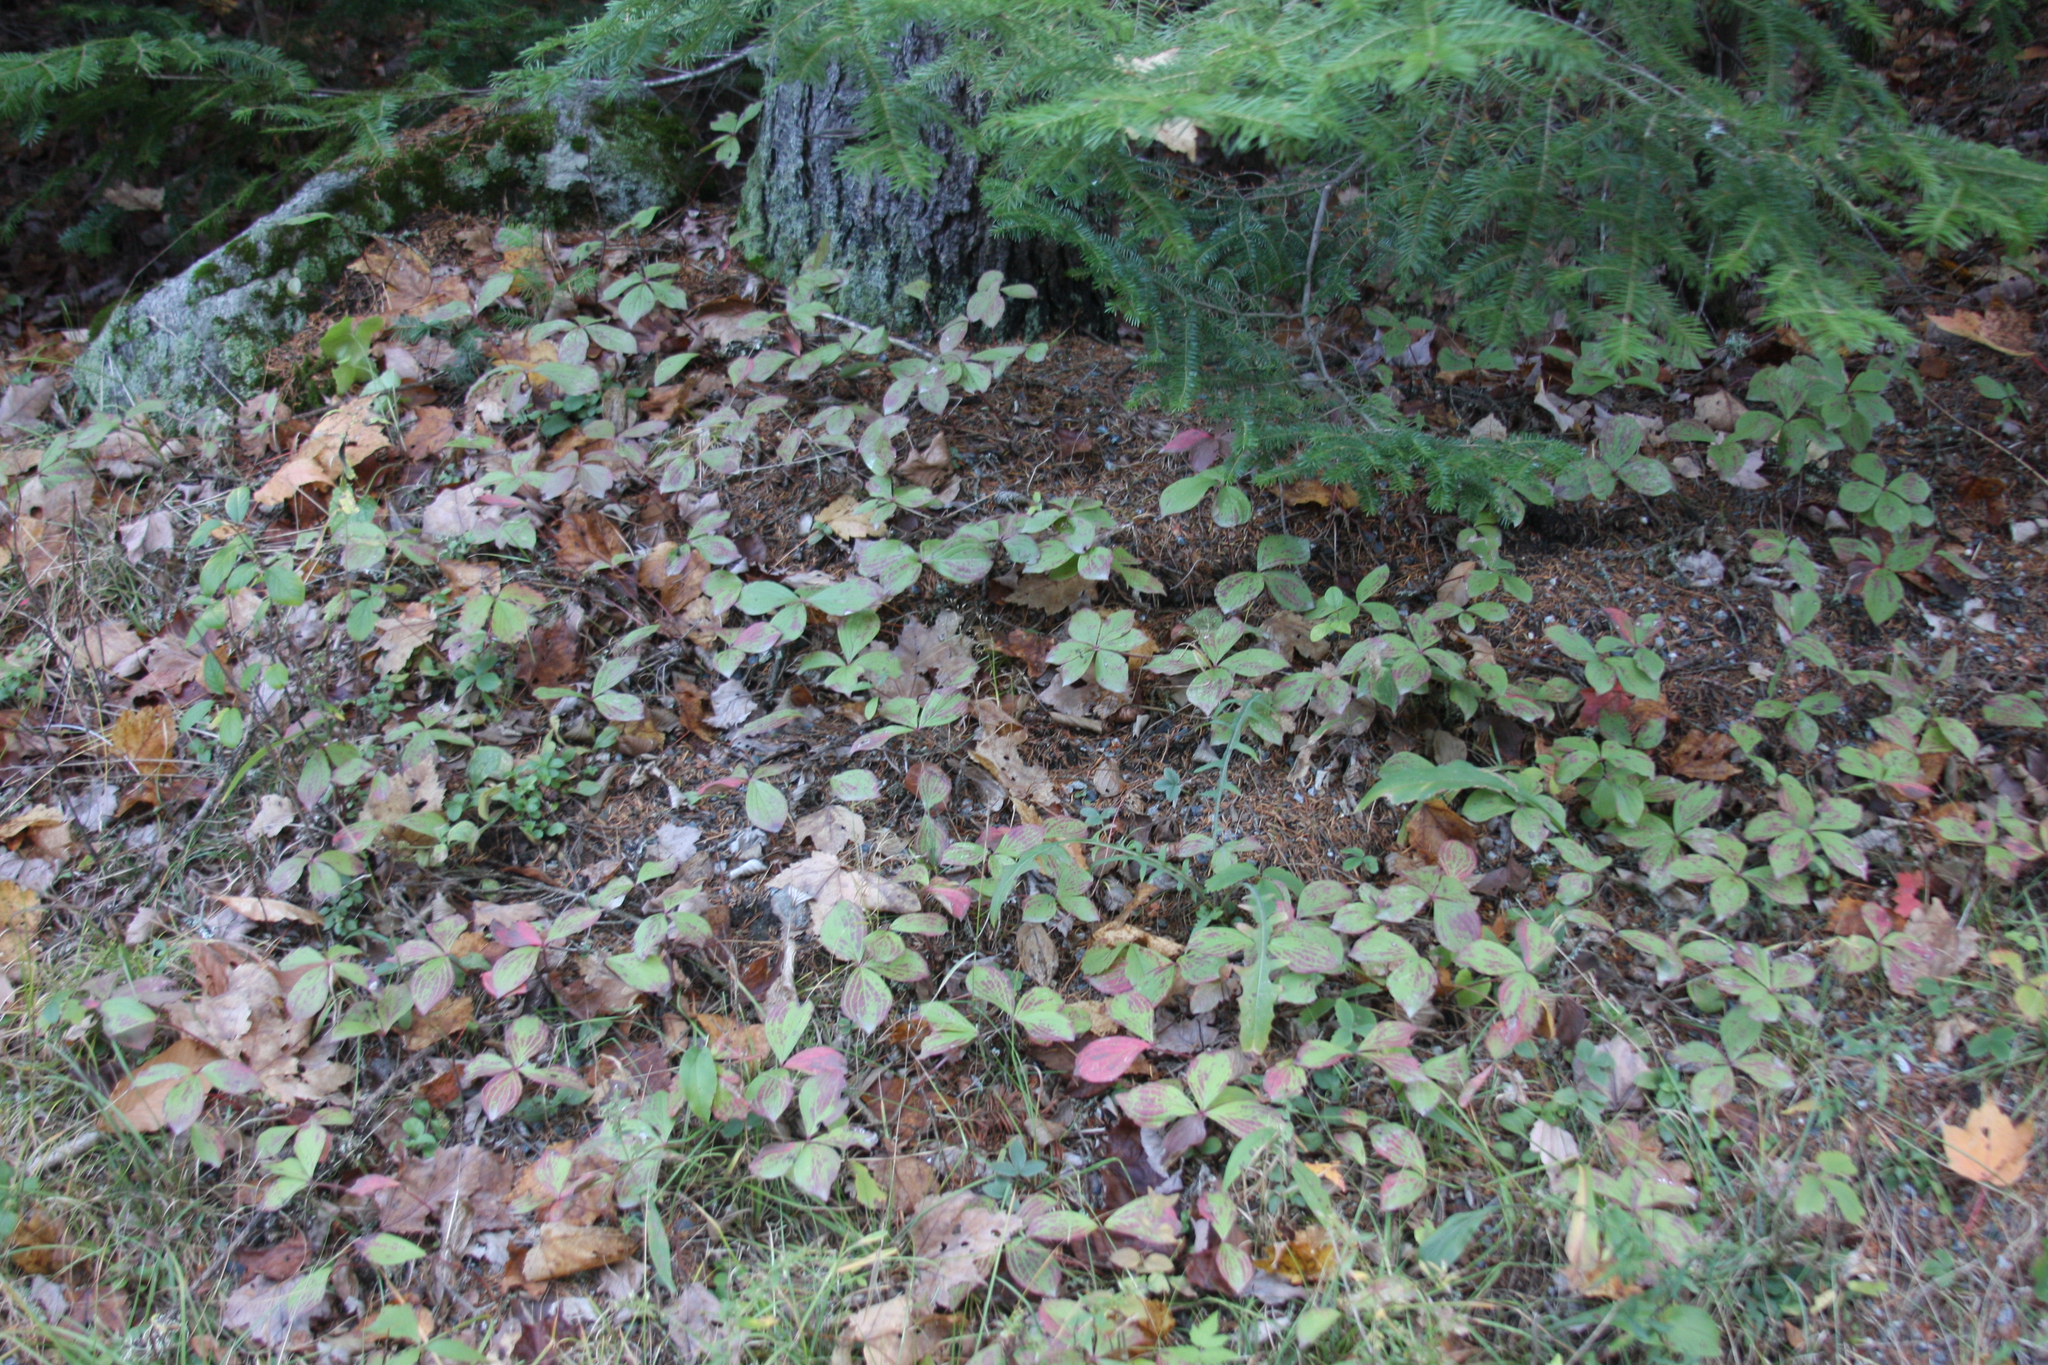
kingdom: Plantae
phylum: Tracheophyta
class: Magnoliopsida
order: Cornales
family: Cornaceae
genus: Cornus
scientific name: Cornus canadensis
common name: Creeping dogwood
